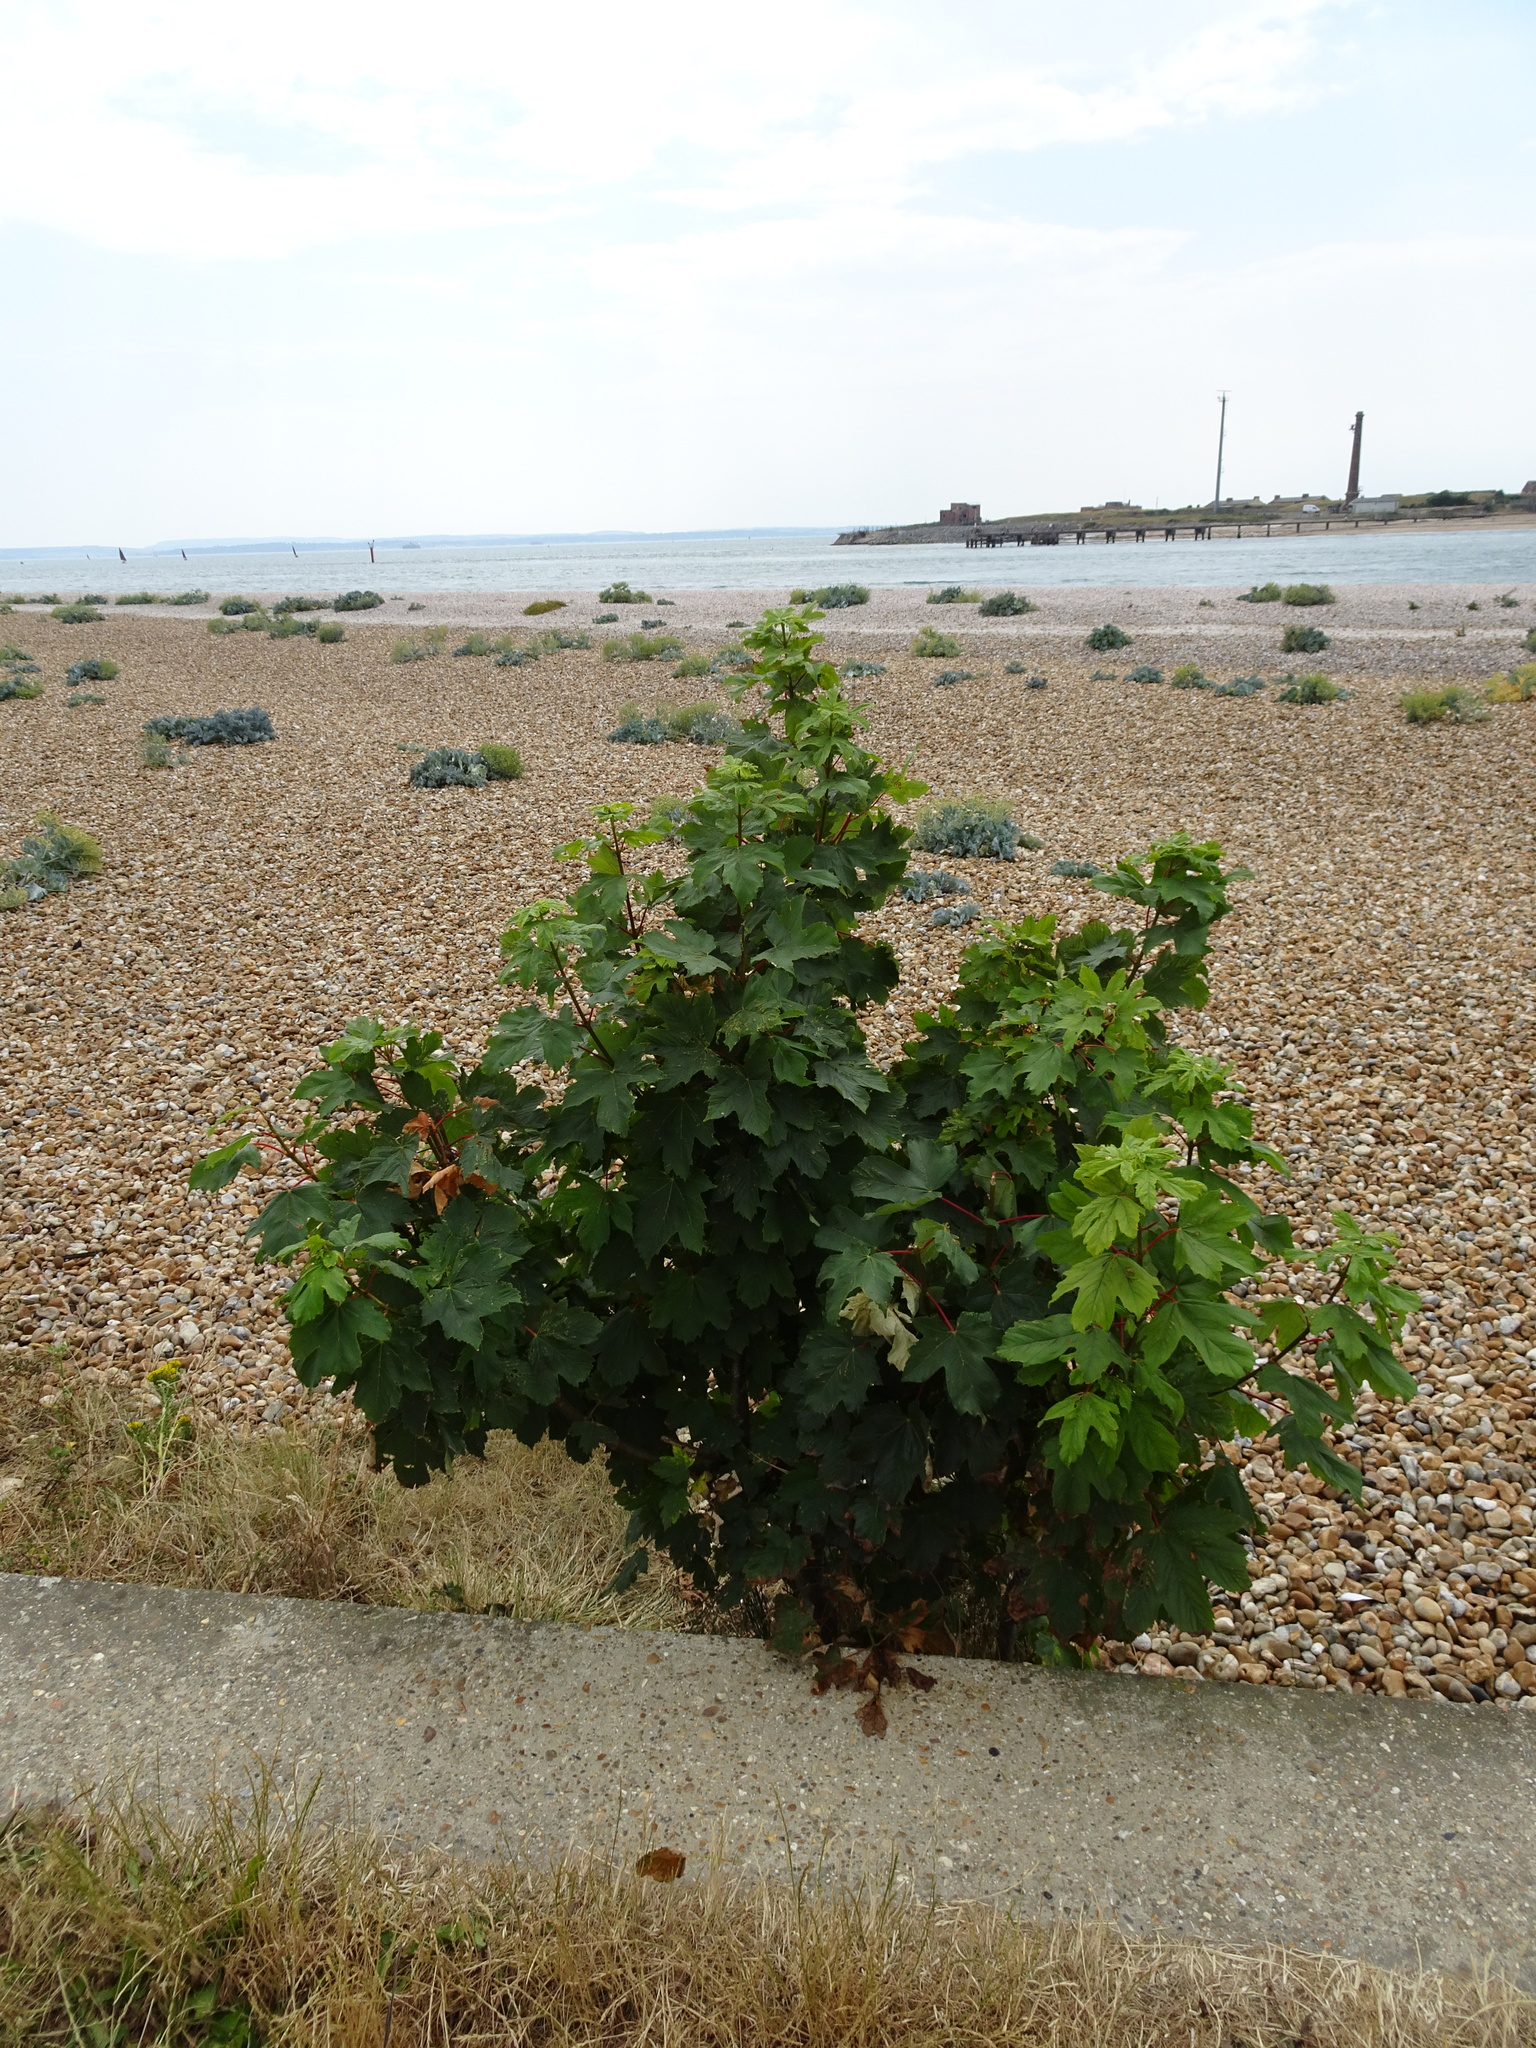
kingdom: Plantae
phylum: Tracheophyta
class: Magnoliopsida
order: Sapindales
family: Sapindaceae
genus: Acer
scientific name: Acer pseudoplatanus
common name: Sycamore
